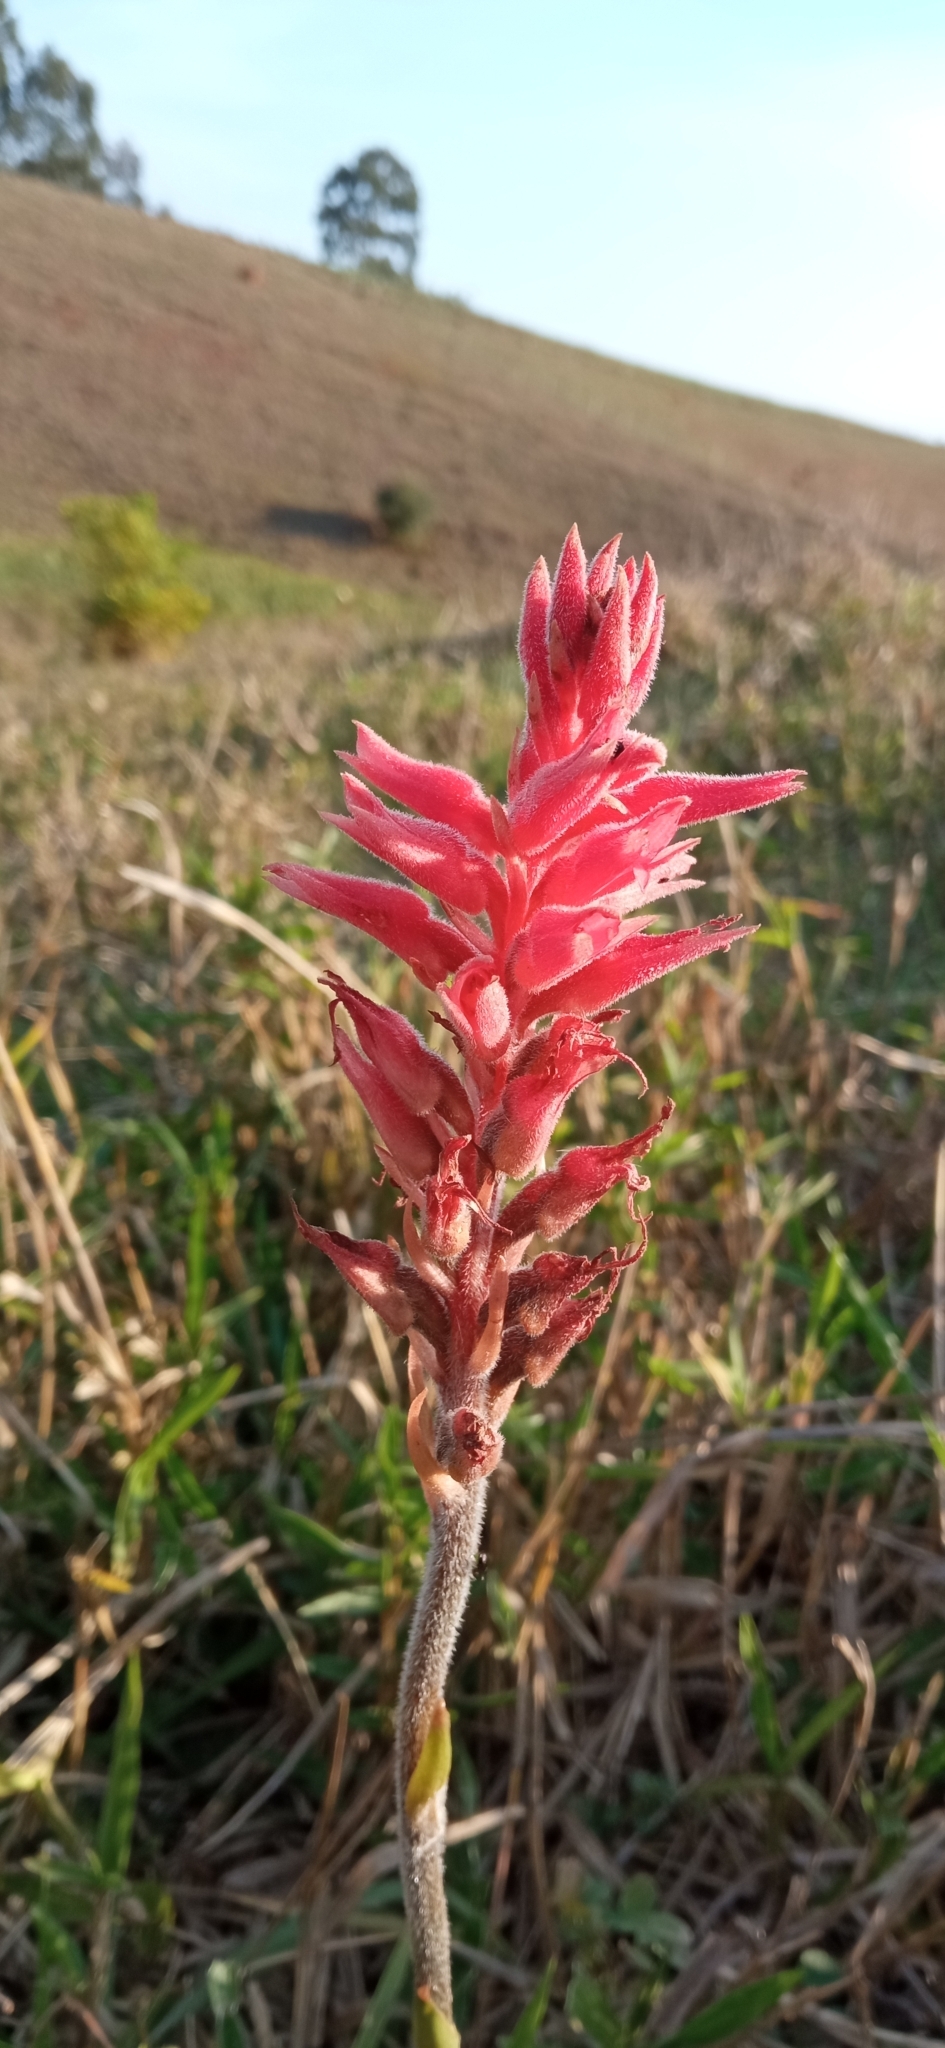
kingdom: Plantae
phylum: Tracheophyta
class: Liliopsida
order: Asparagales
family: Orchidaceae
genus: Sacoila
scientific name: Sacoila lanceolata
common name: Leafless beaked ladiestresses
